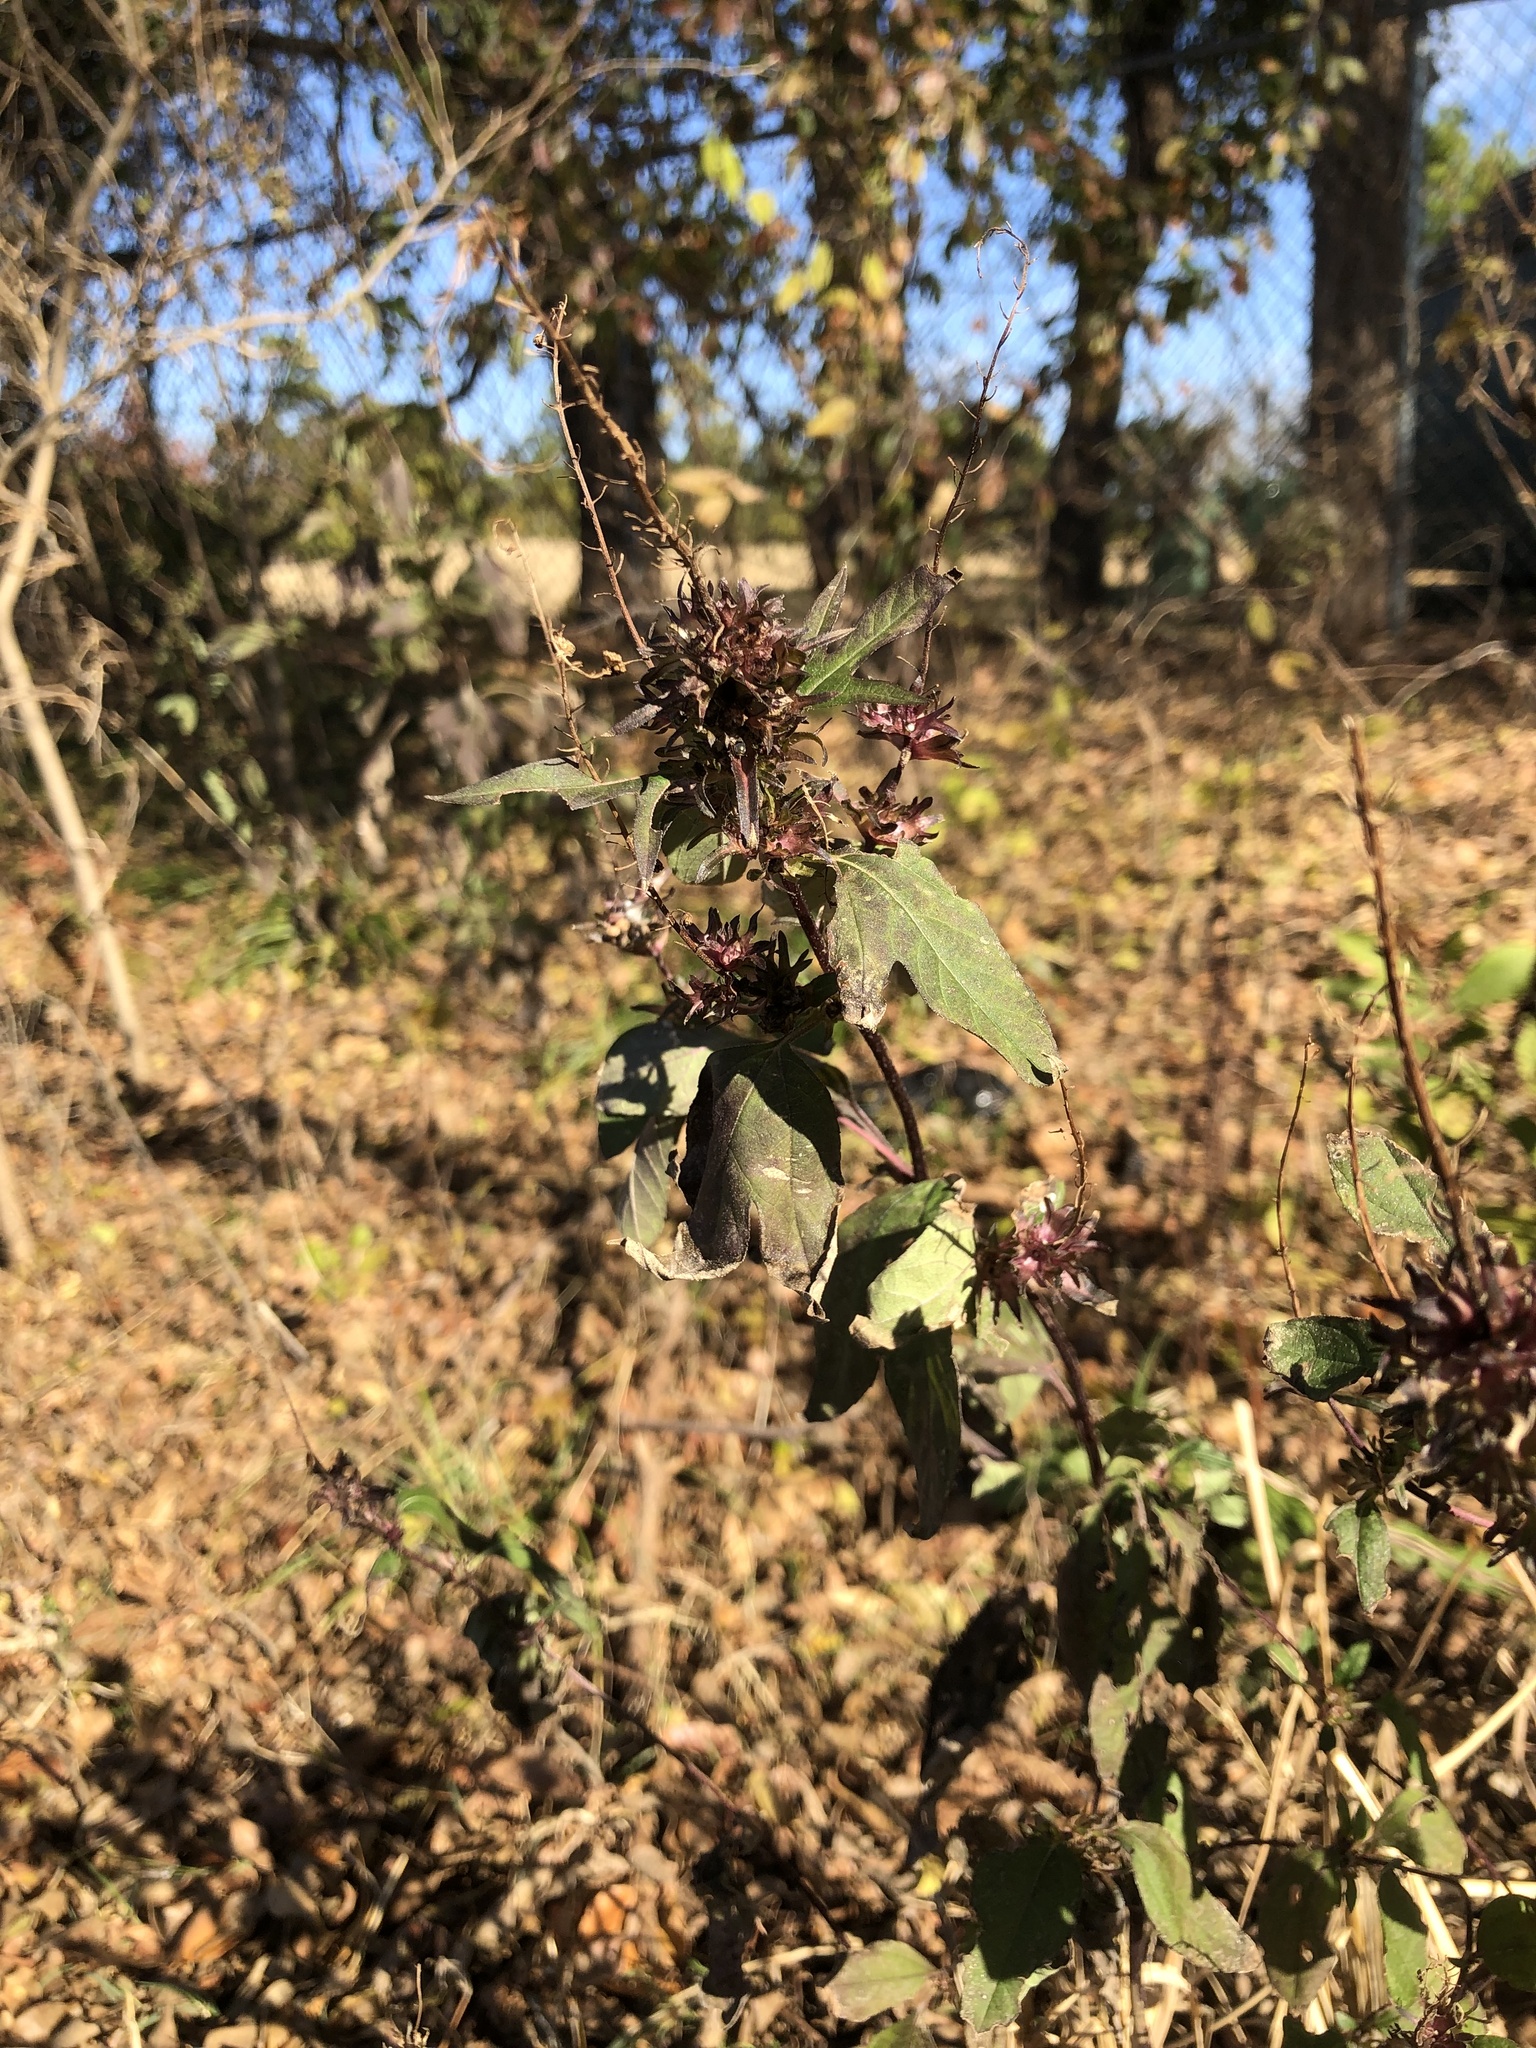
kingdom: Plantae
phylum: Tracheophyta
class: Magnoliopsida
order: Asterales
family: Asteraceae
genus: Ambrosia
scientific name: Ambrosia trifida
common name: Giant ragweed
